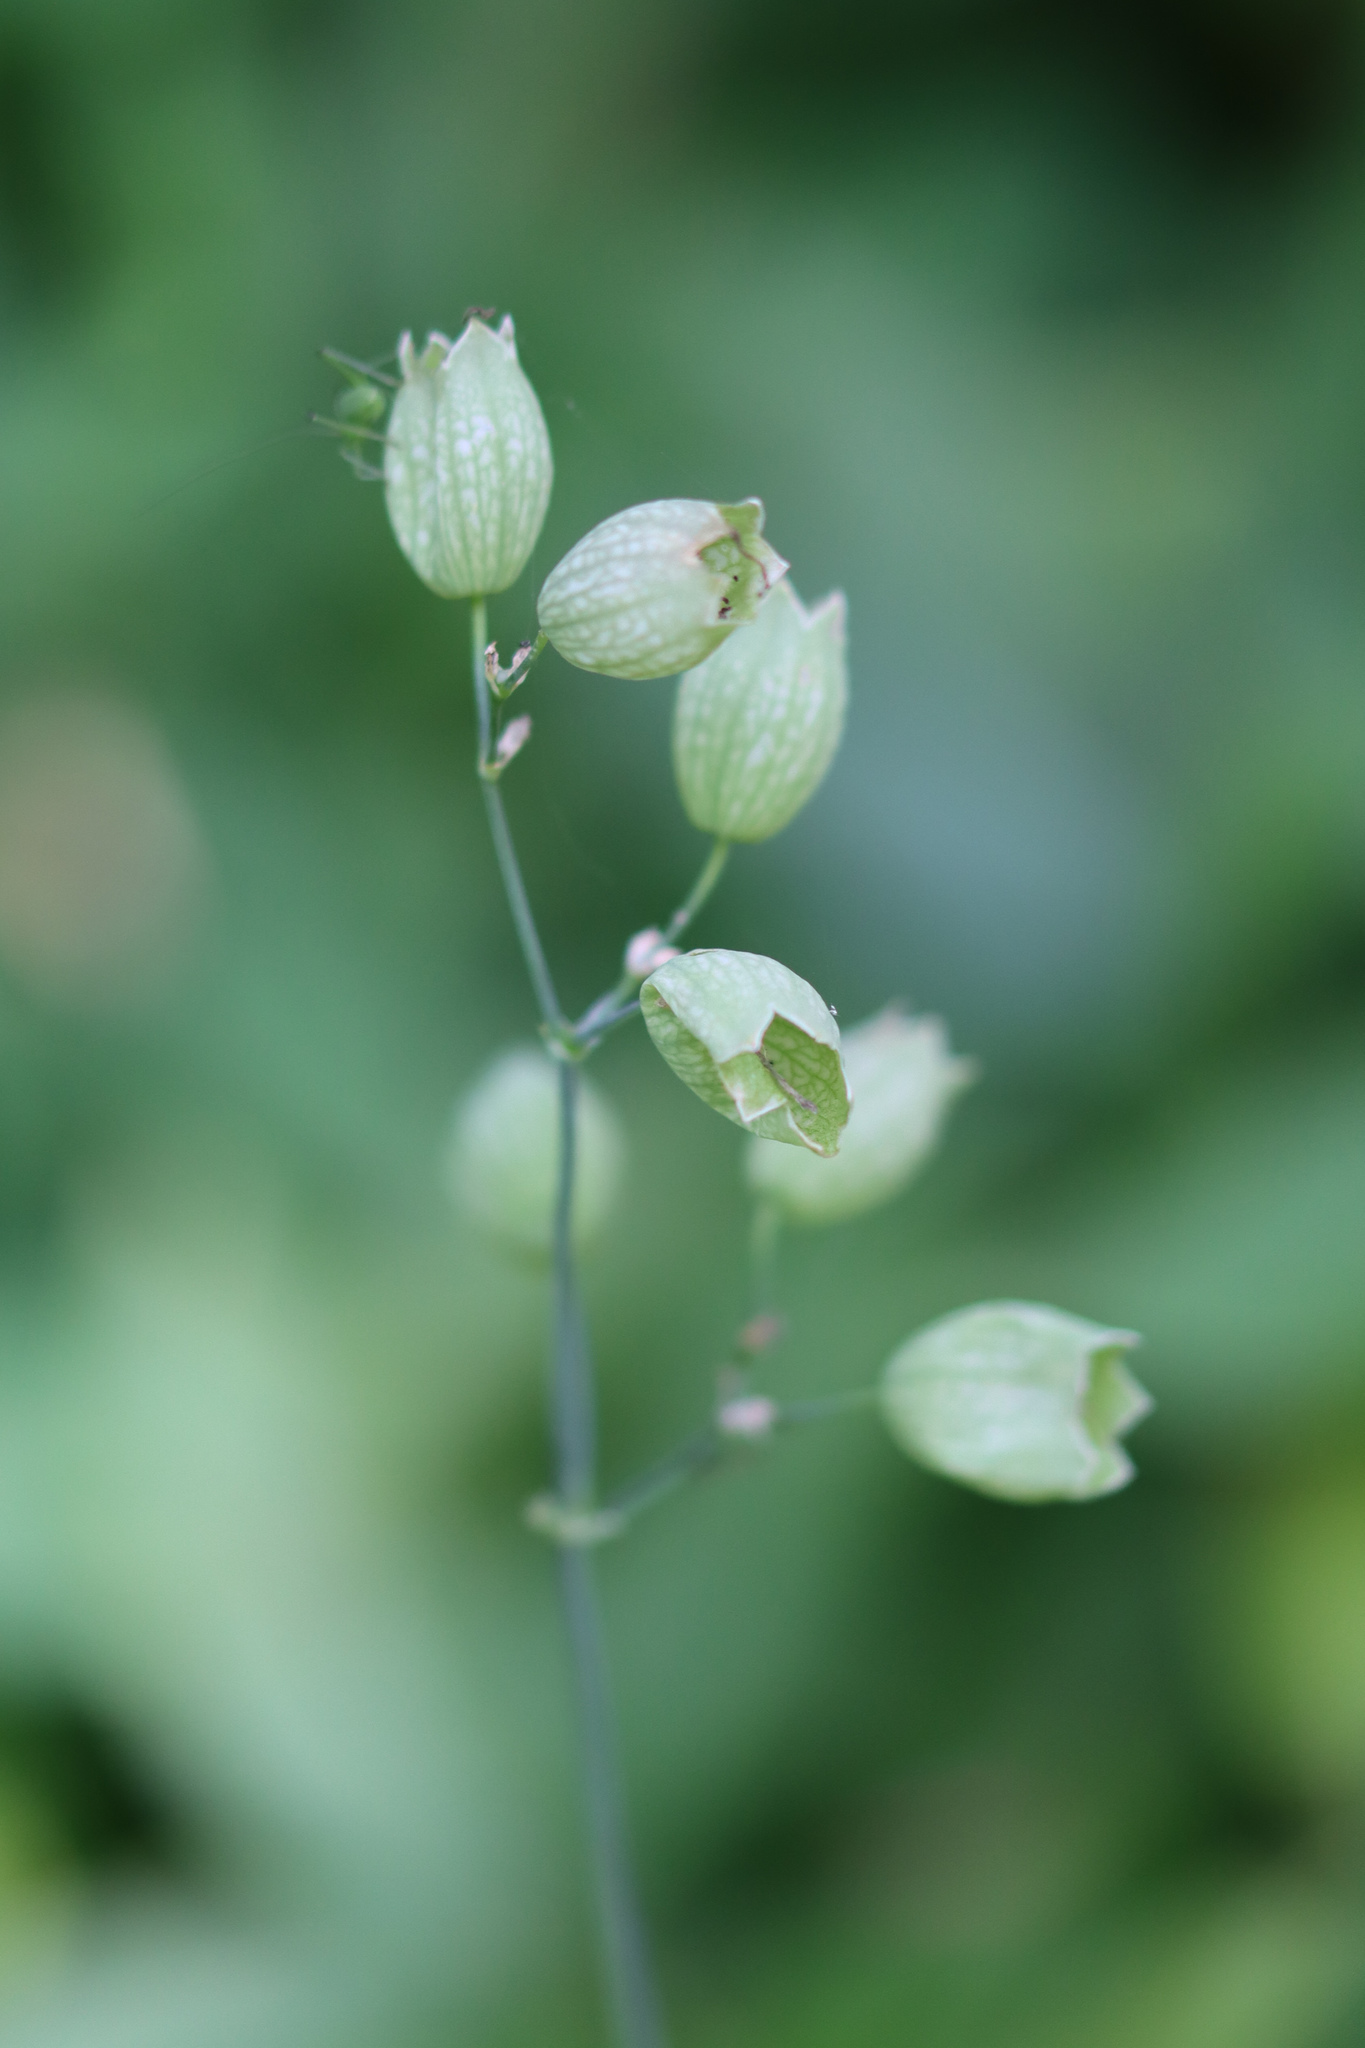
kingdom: Plantae
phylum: Tracheophyta
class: Magnoliopsida
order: Caryophyllales
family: Caryophyllaceae
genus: Silene
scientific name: Silene vulgaris
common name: Bladder campion
